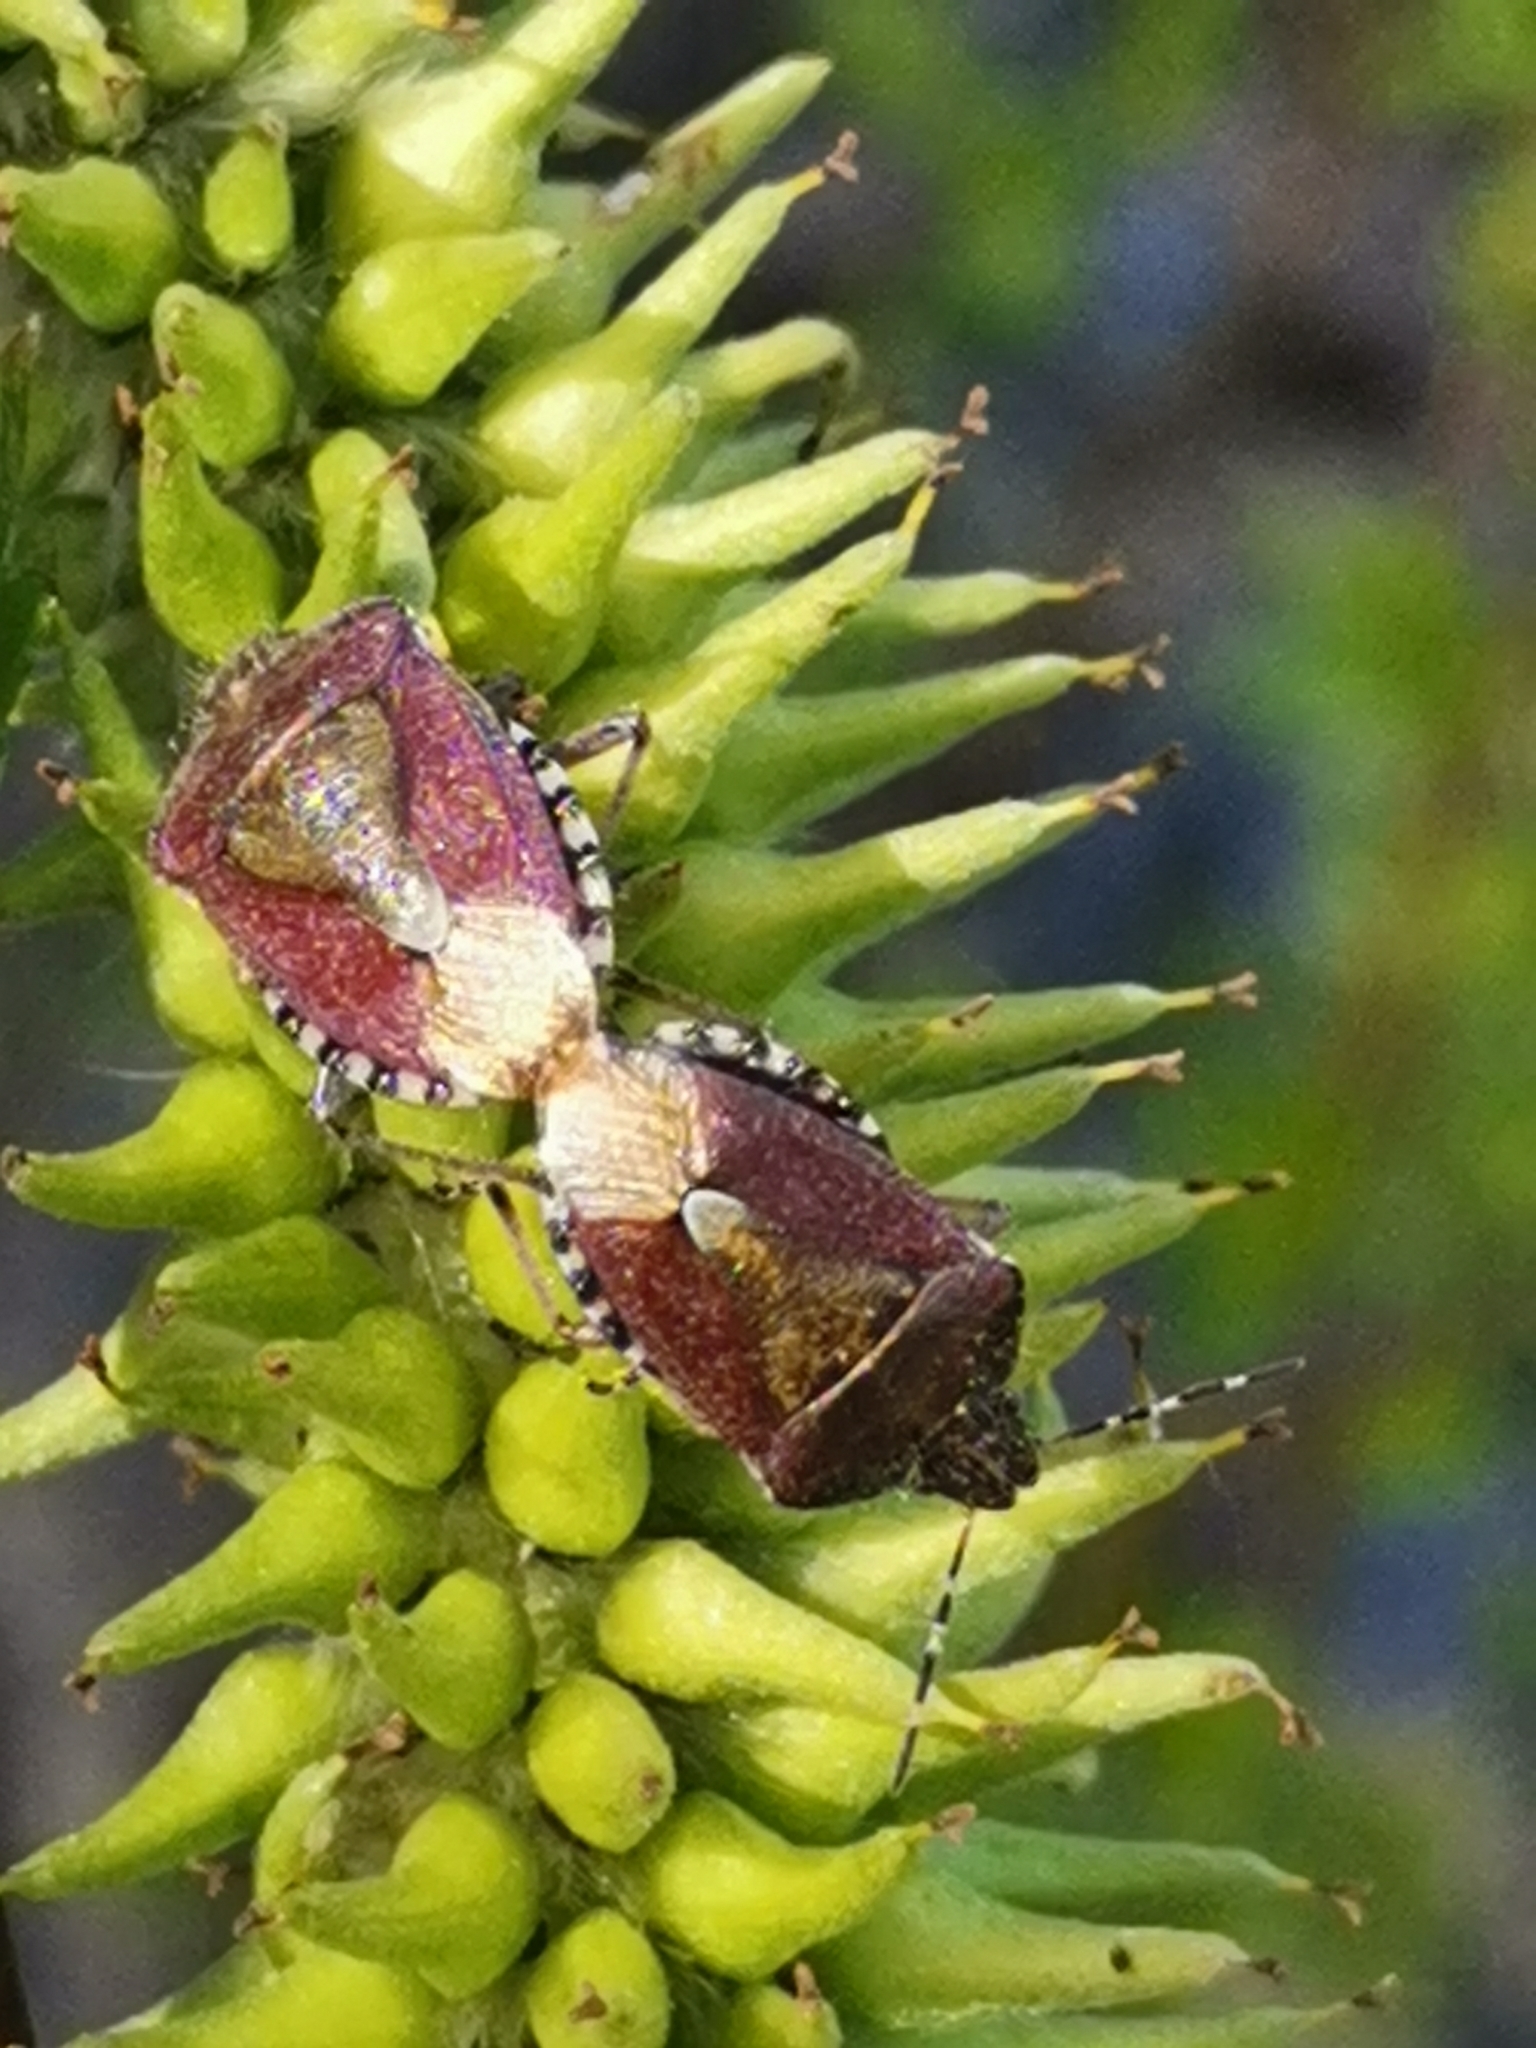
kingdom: Animalia
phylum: Arthropoda
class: Insecta
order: Hemiptera
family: Pentatomidae
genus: Dolycoris
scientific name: Dolycoris baccarum
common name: Sloe bug
